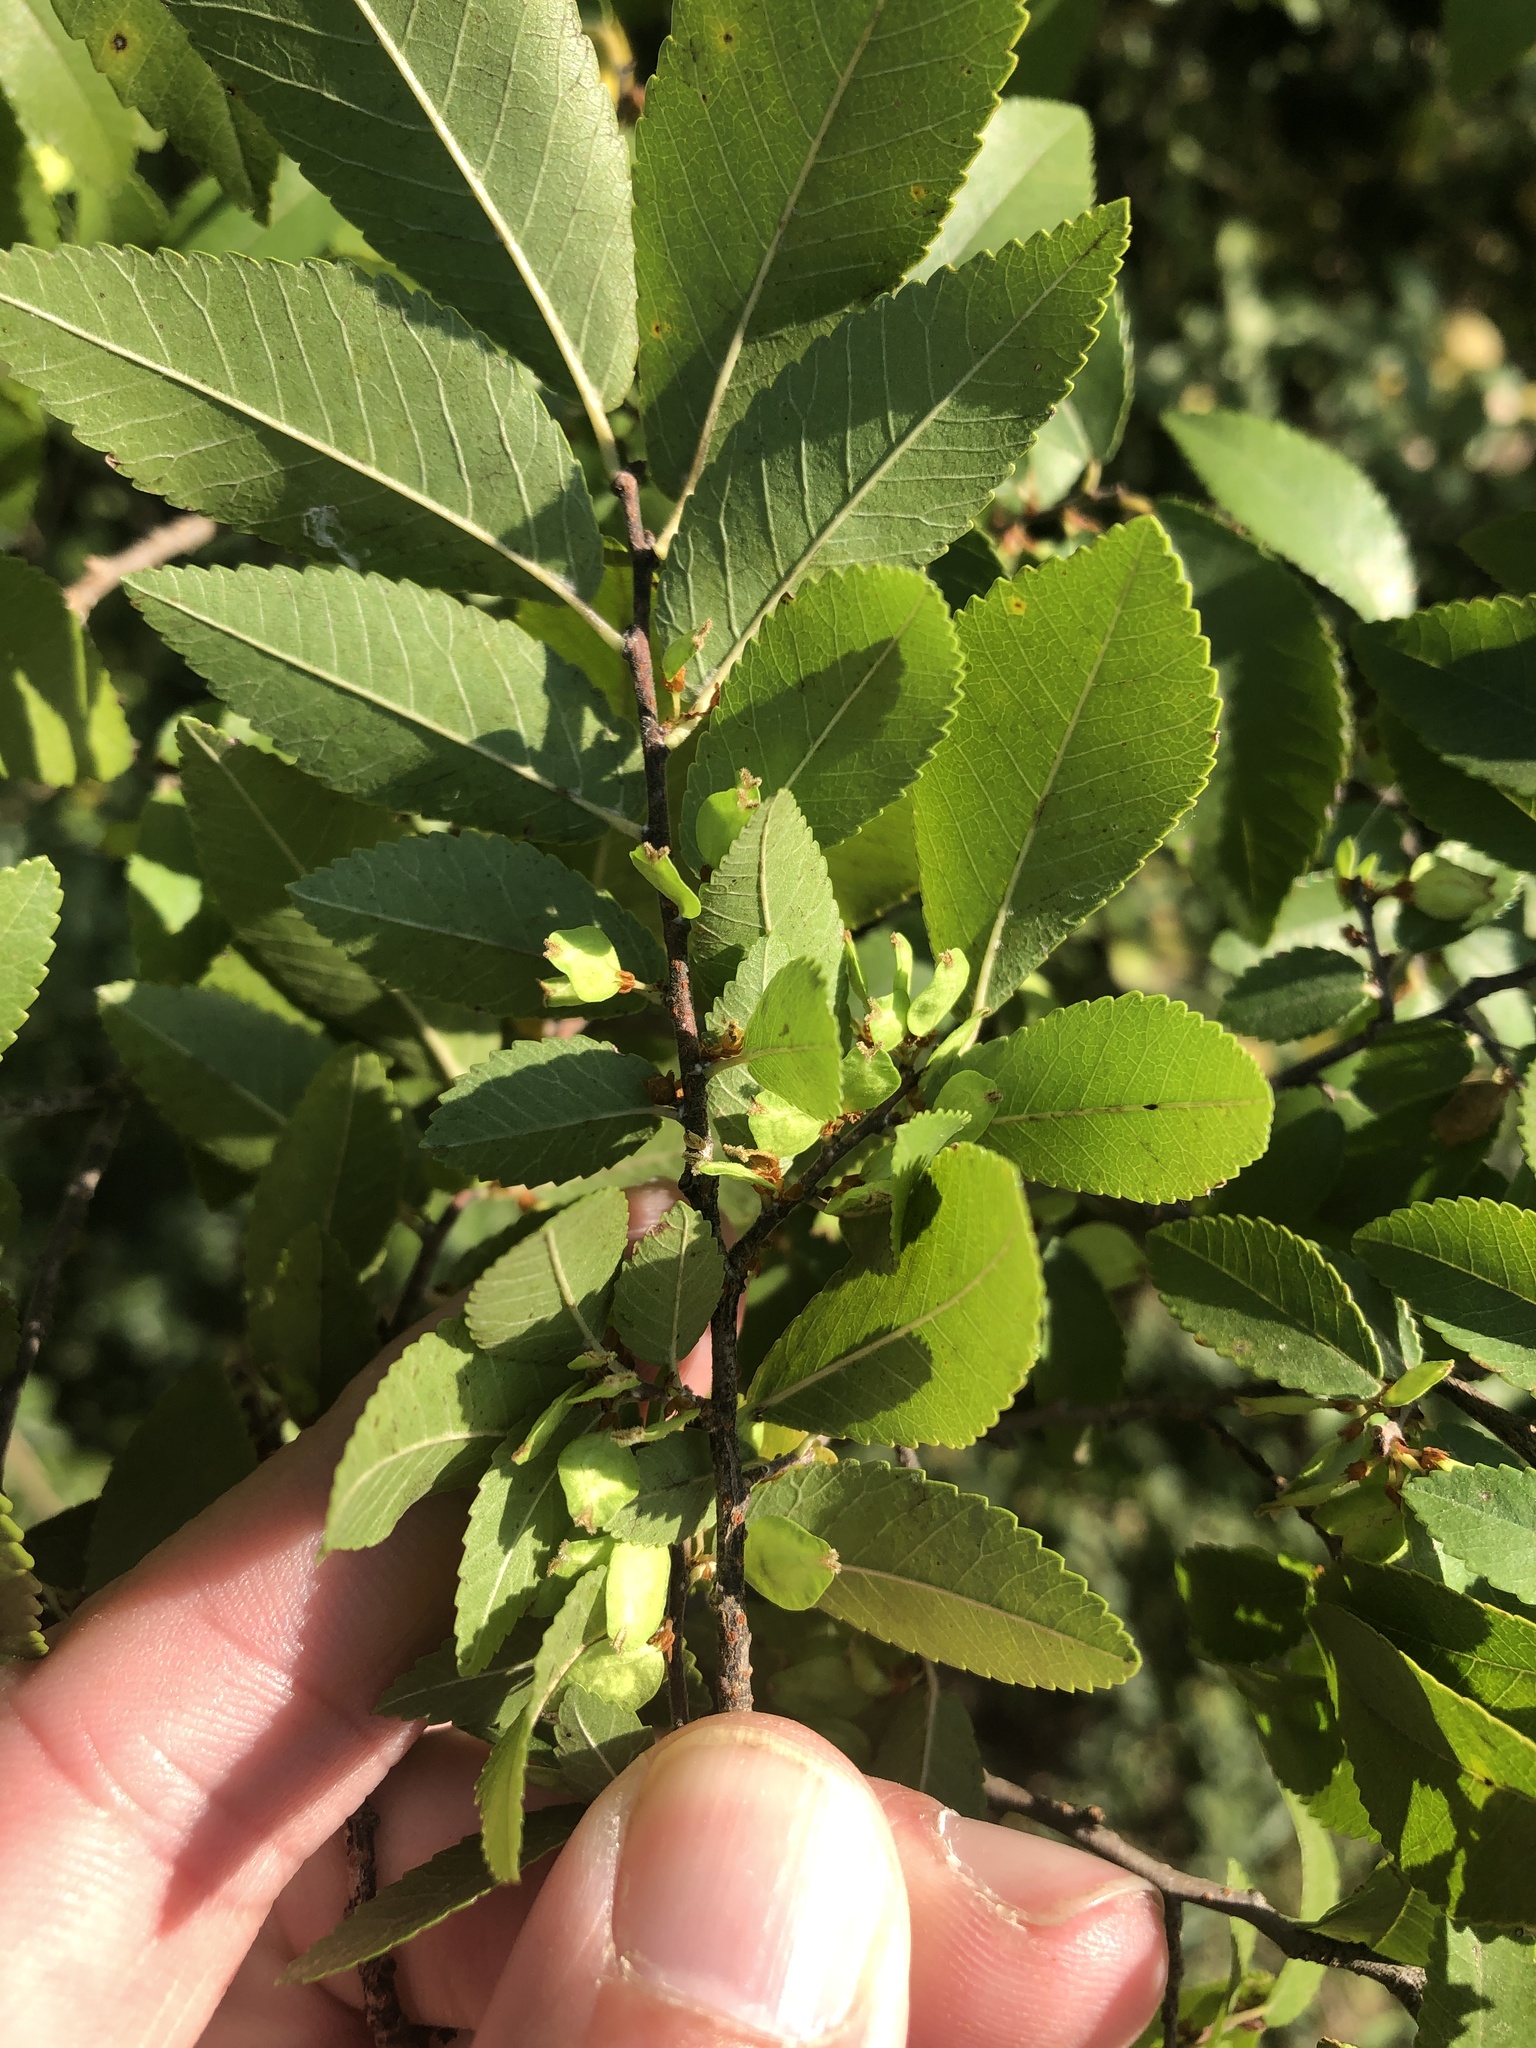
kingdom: Plantae
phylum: Tracheophyta
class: Magnoliopsida
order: Rosales
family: Ulmaceae
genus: Ulmus
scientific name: Ulmus parvifolia
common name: Chinese elm
